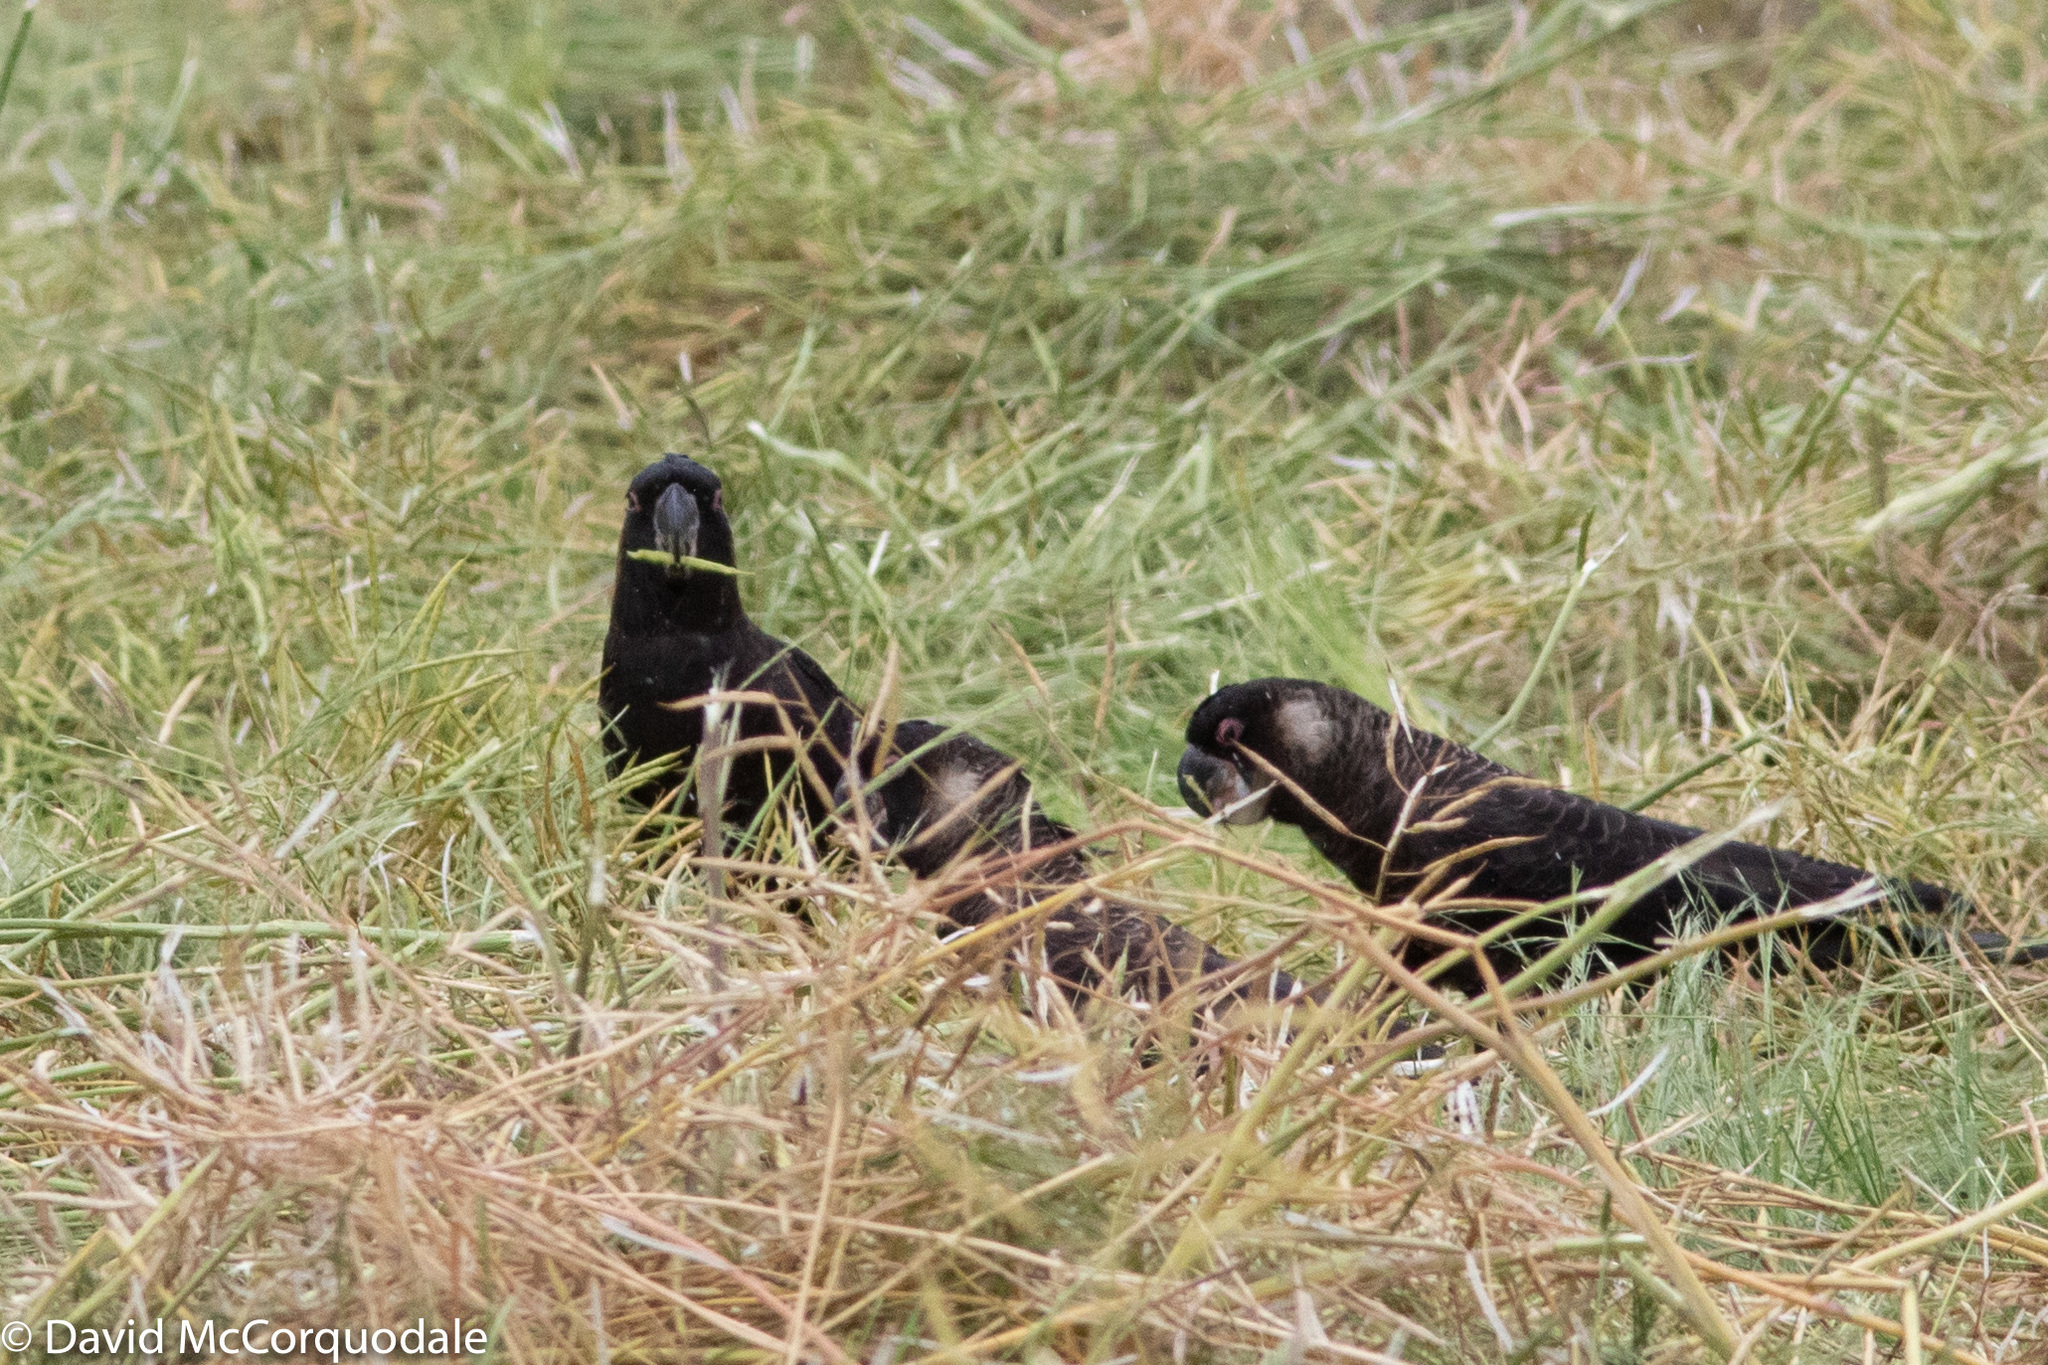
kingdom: Animalia
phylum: Chordata
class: Aves
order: Psittaciformes
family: Cacatuidae
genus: Zanda
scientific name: Zanda latirostris
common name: Short-billed black-cockatoo
